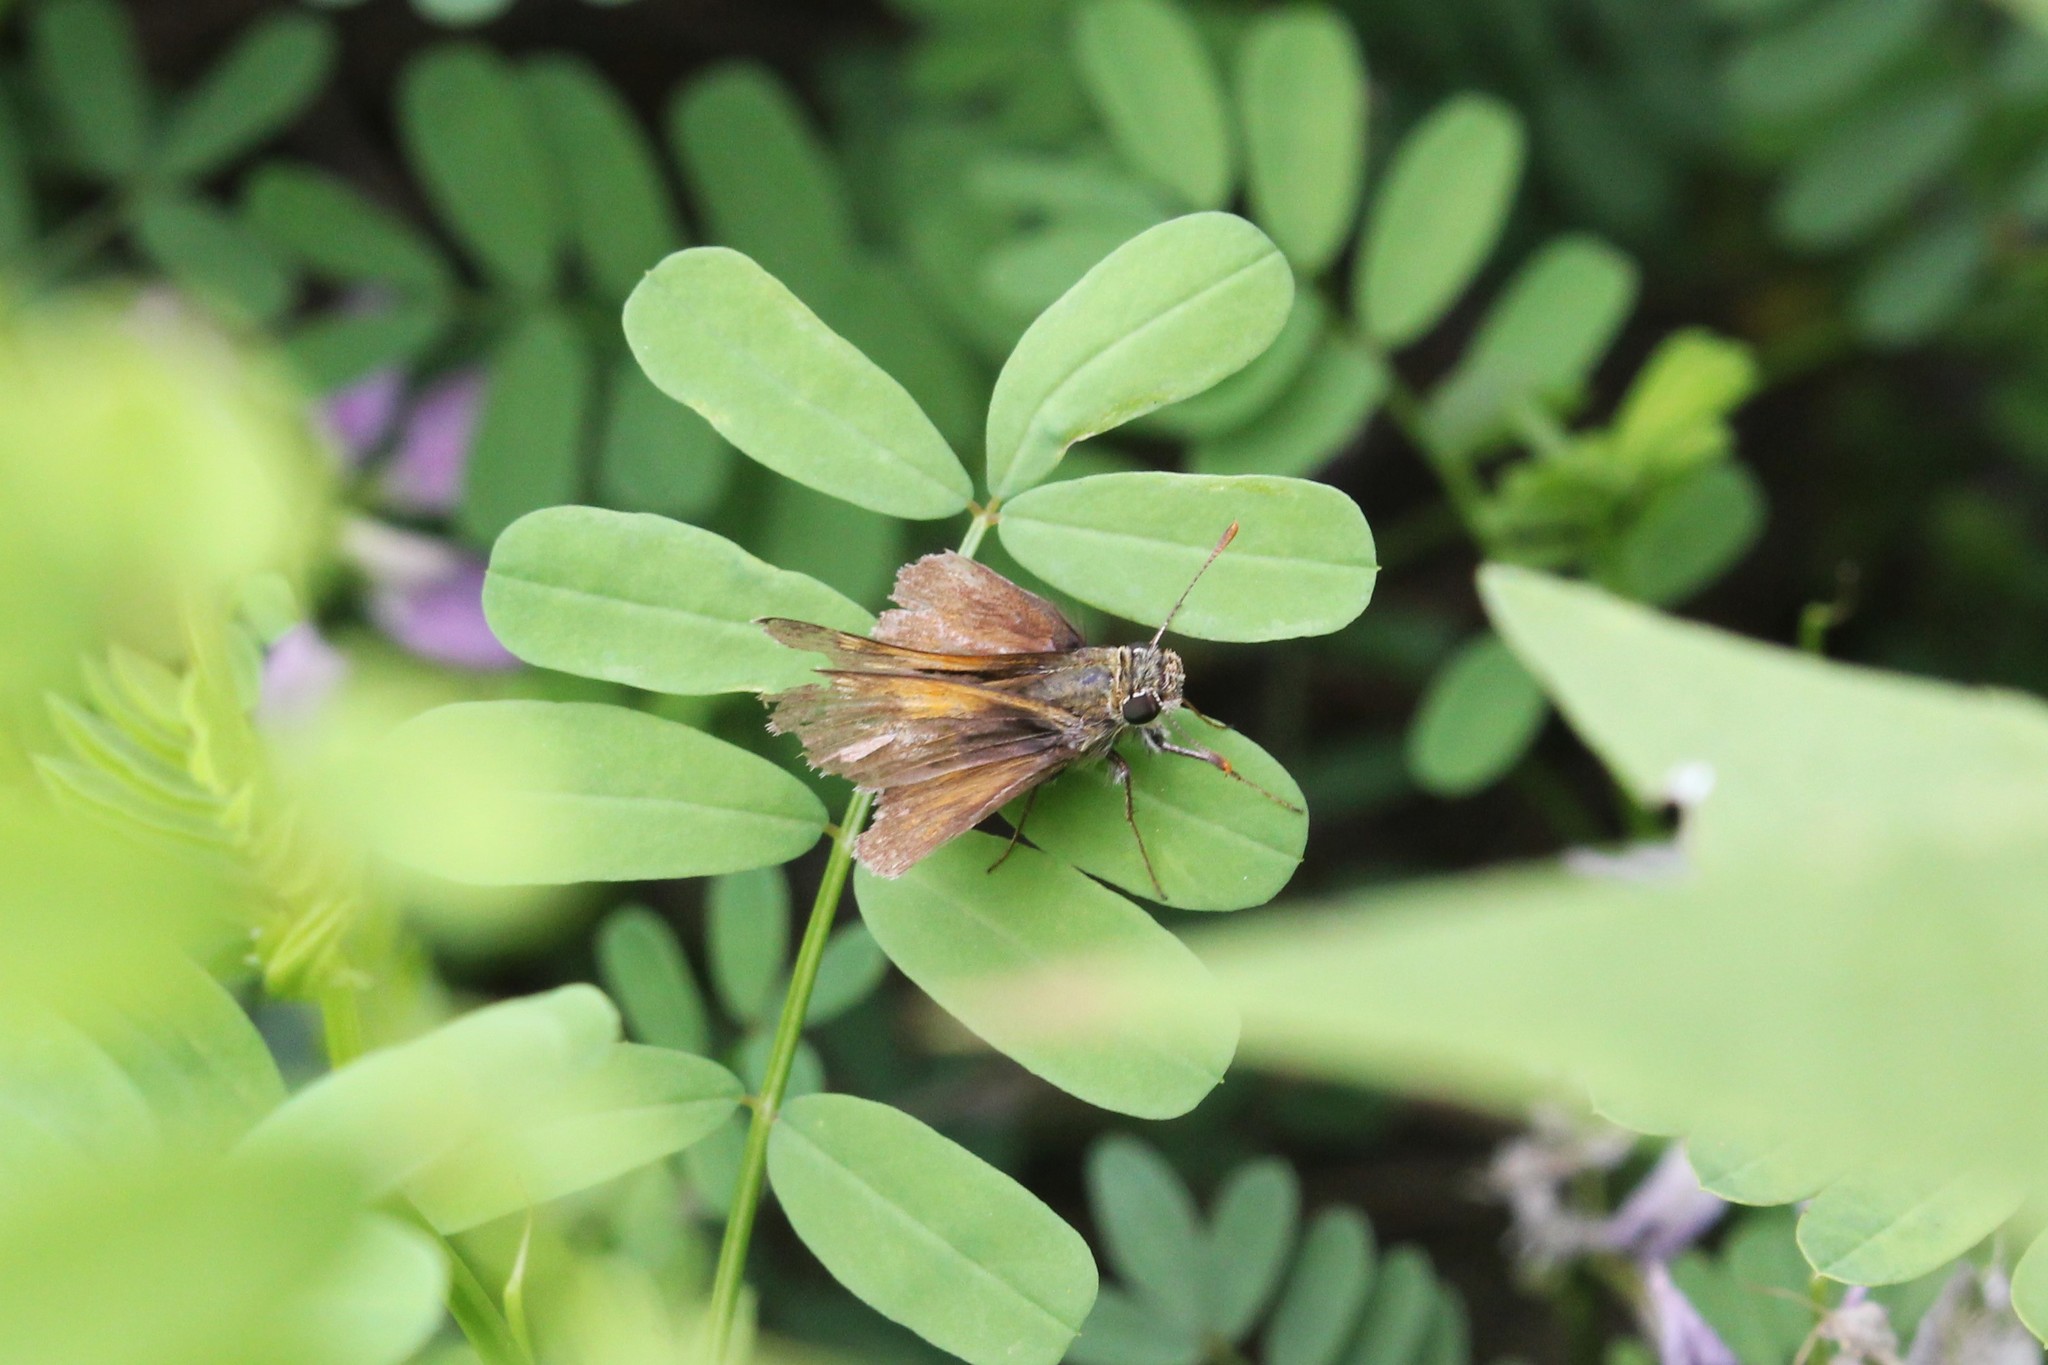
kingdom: Animalia
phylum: Arthropoda
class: Insecta
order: Lepidoptera
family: Hesperiidae
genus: Polites
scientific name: Polites themistocles
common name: Tawny-edged skipper
